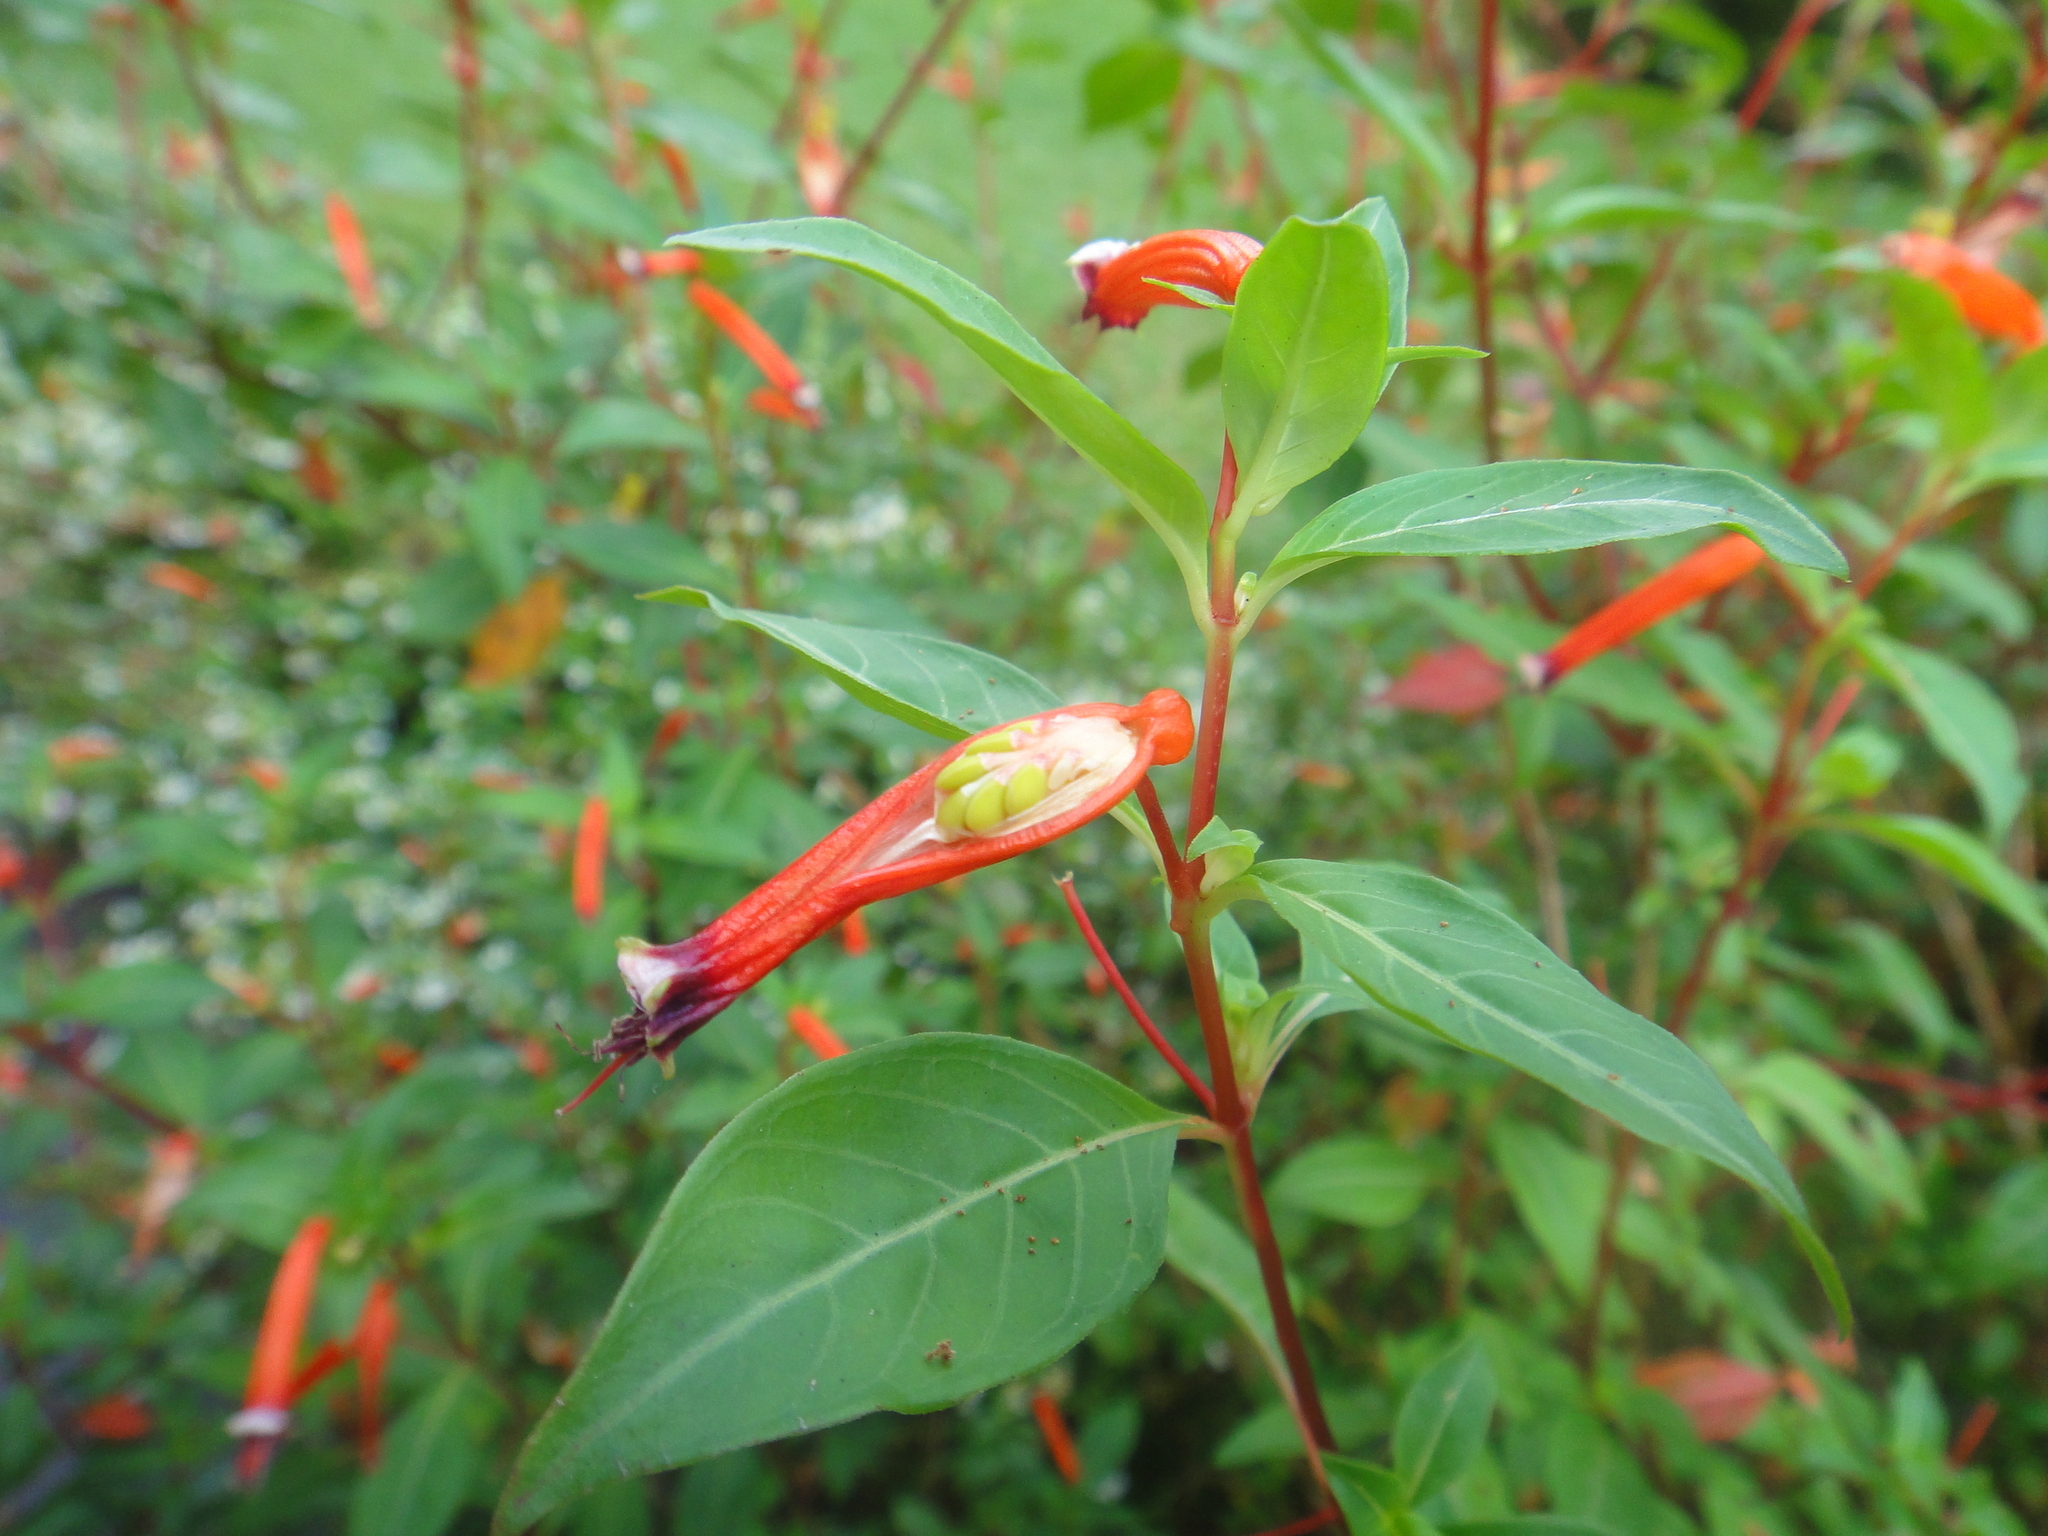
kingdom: Plantae
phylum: Tracheophyta
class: Magnoliopsida
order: Myrtales
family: Lythraceae
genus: Cuphea
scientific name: Cuphea ignea
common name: Cigar flower
